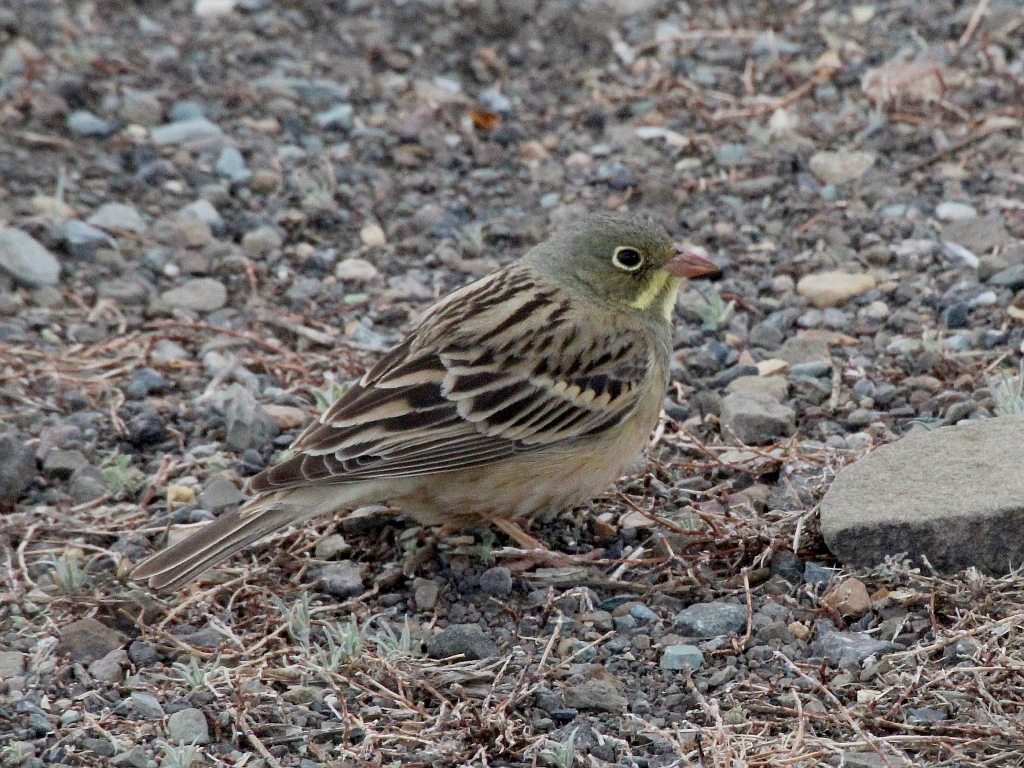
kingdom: Animalia
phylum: Chordata
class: Aves
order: Passeriformes
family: Emberizidae
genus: Emberiza
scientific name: Emberiza hortulana
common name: Ortolan bunting
